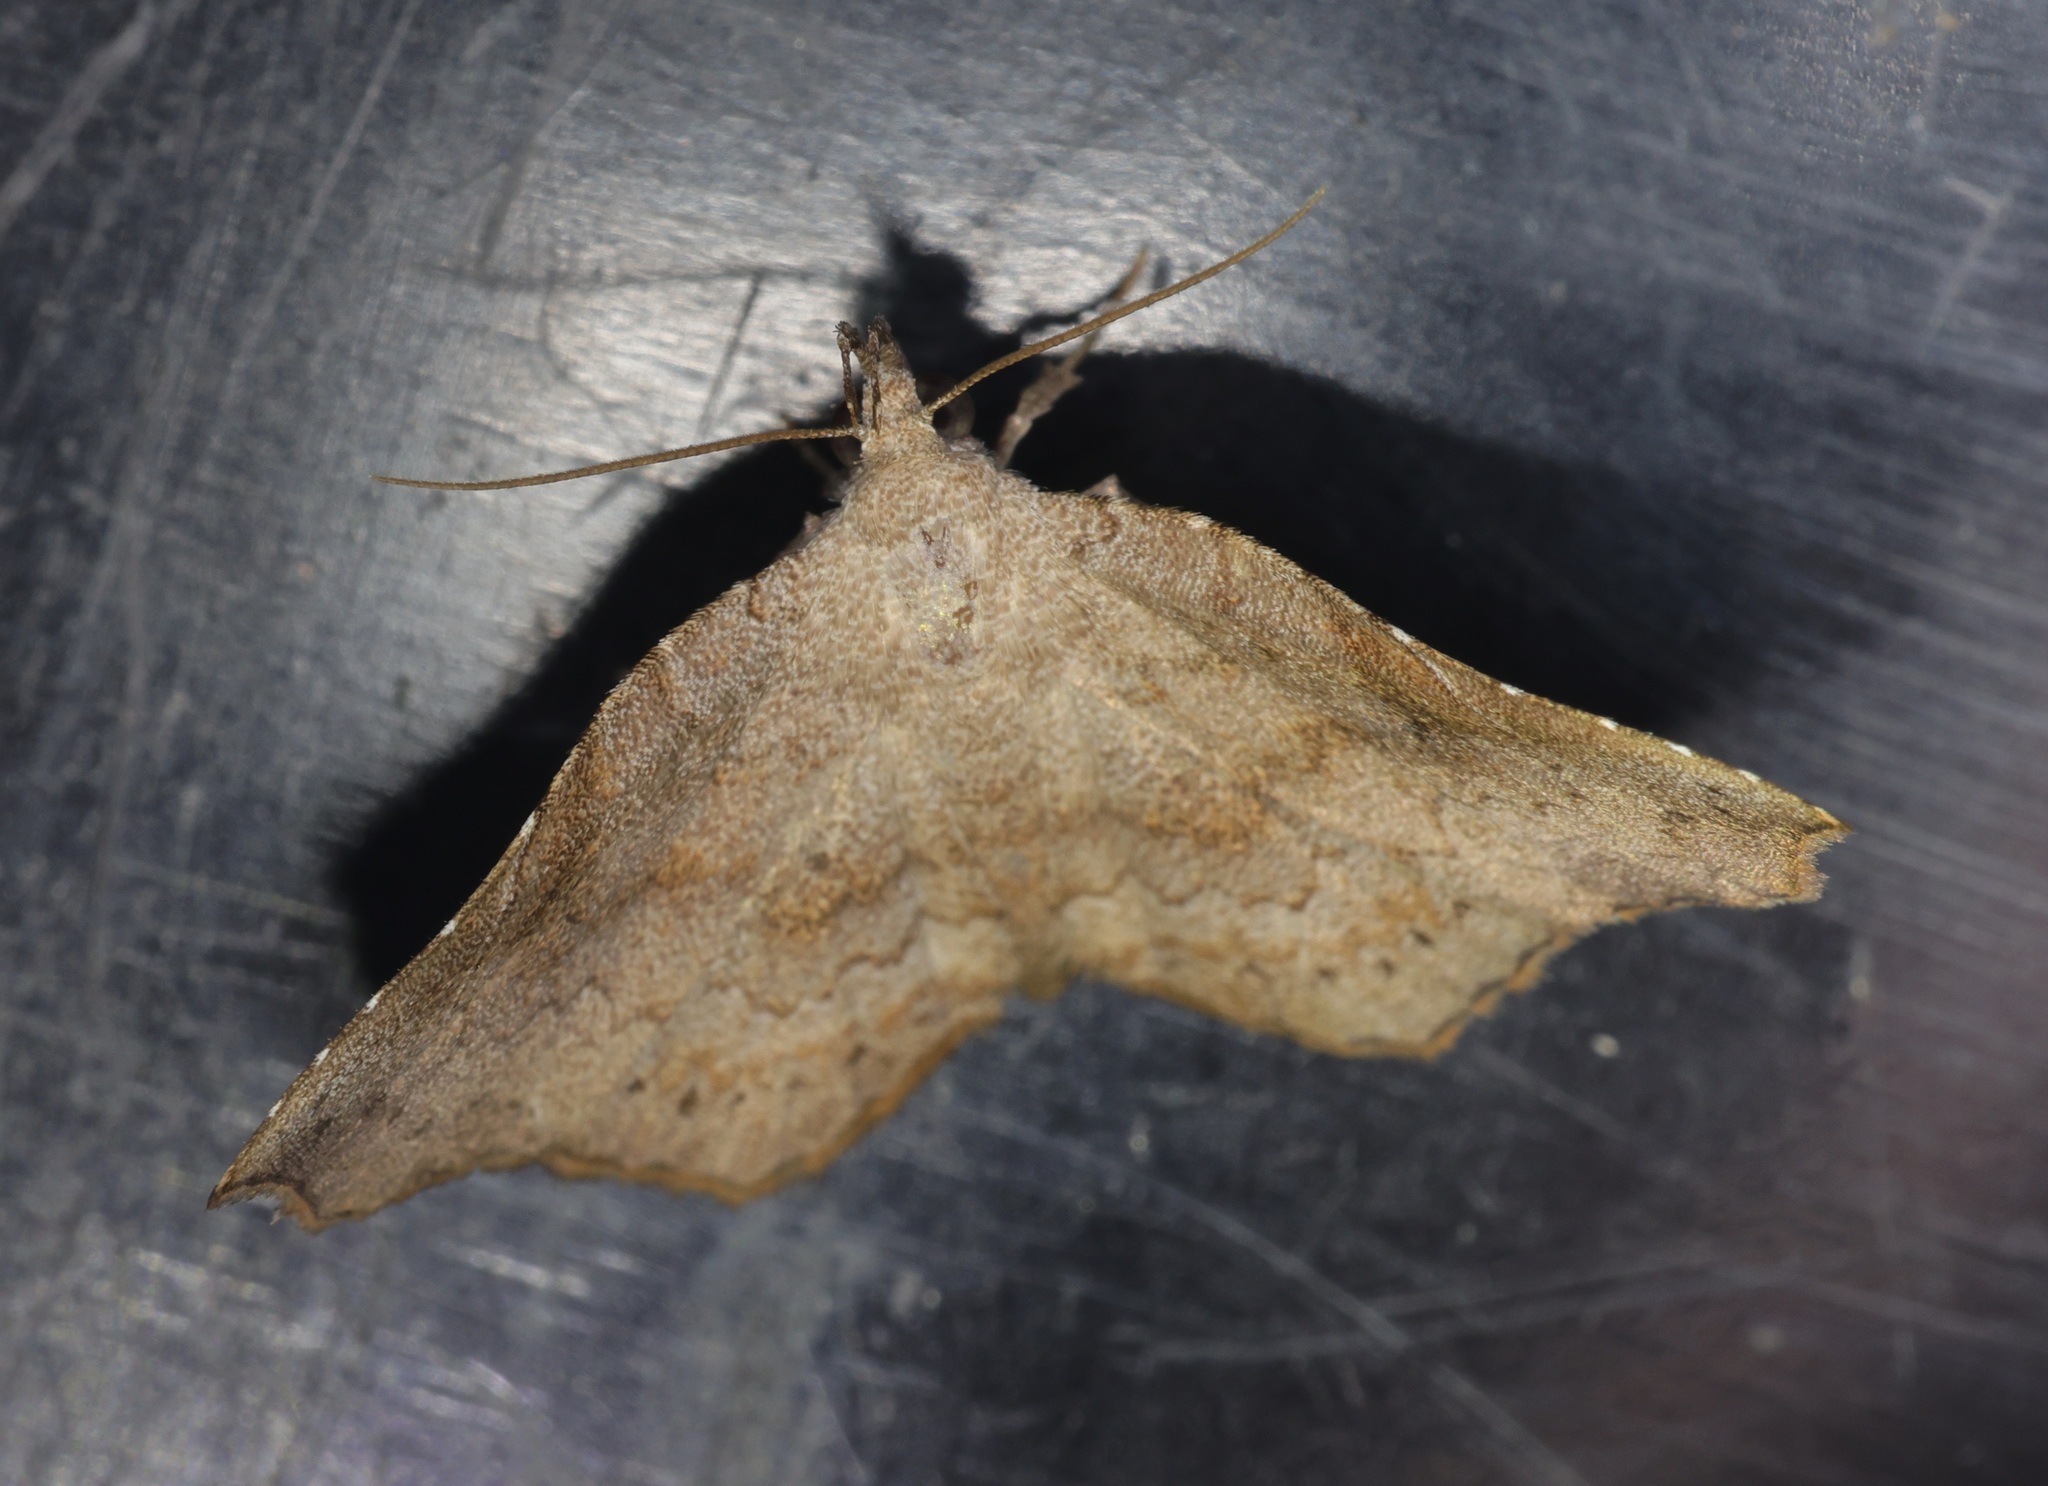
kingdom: Animalia
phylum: Arthropoda
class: Insecta
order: Lepidoptera
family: Erebidae
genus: Egnasia
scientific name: Egnasia seclusalis
